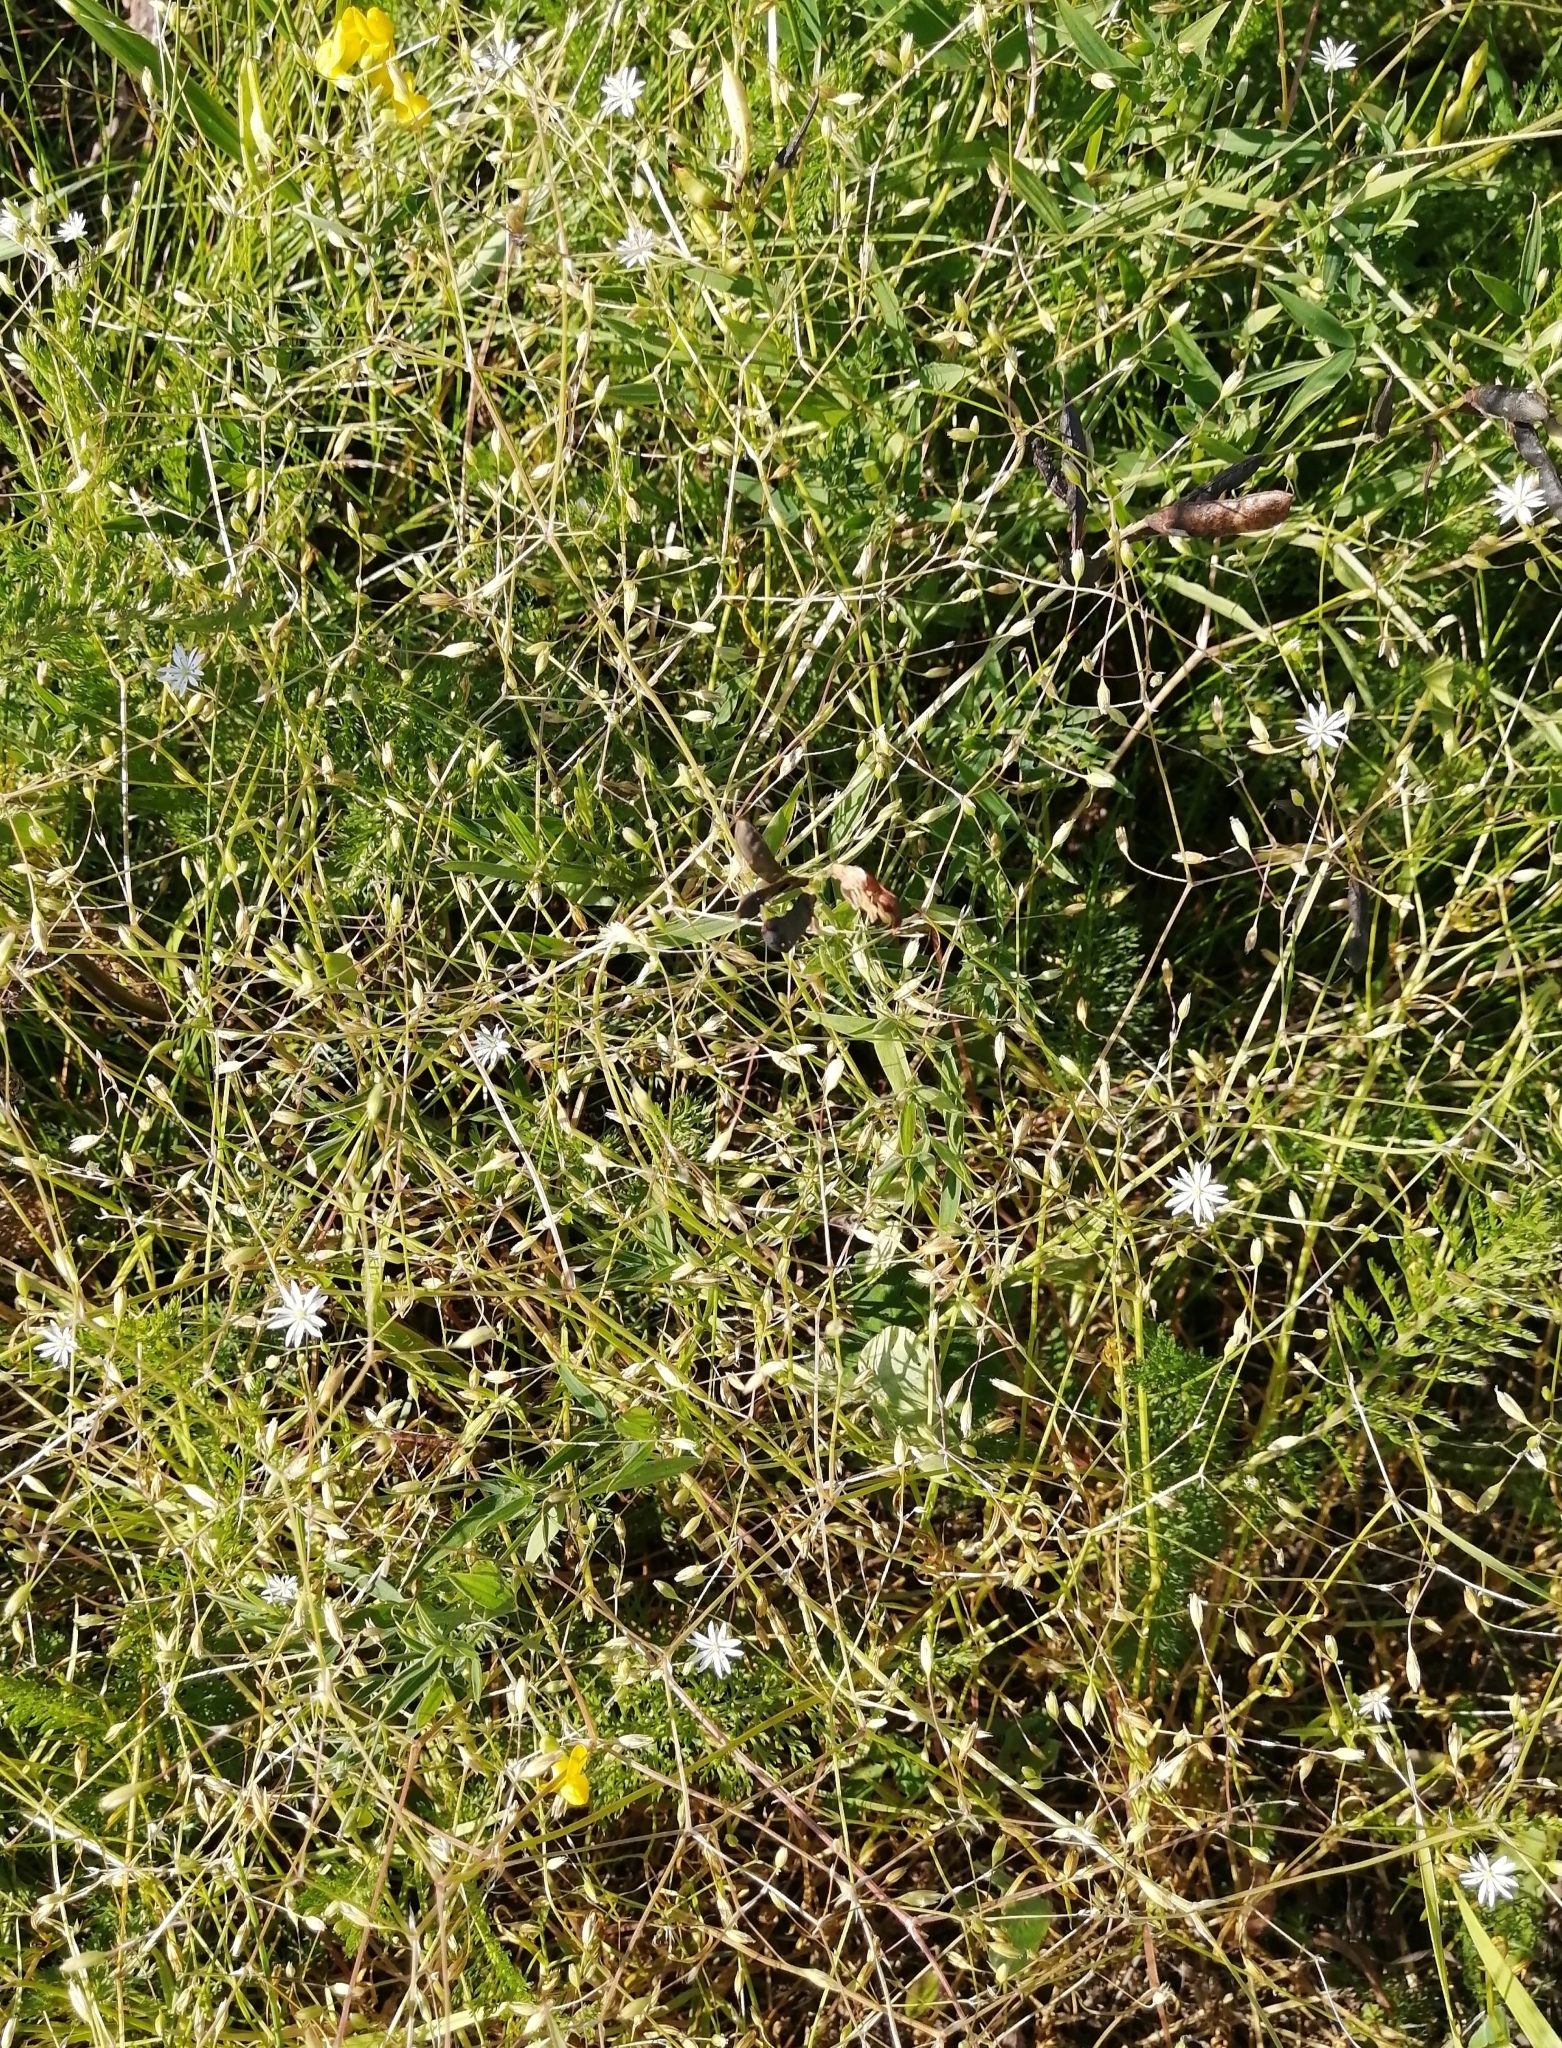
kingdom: Plantae
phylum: Tracheophyta
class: Magnoliopsida
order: Caryophyllales
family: Caryophyllaceae
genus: Stellaria
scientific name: Stellaria graminea
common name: Grass-like starwort
